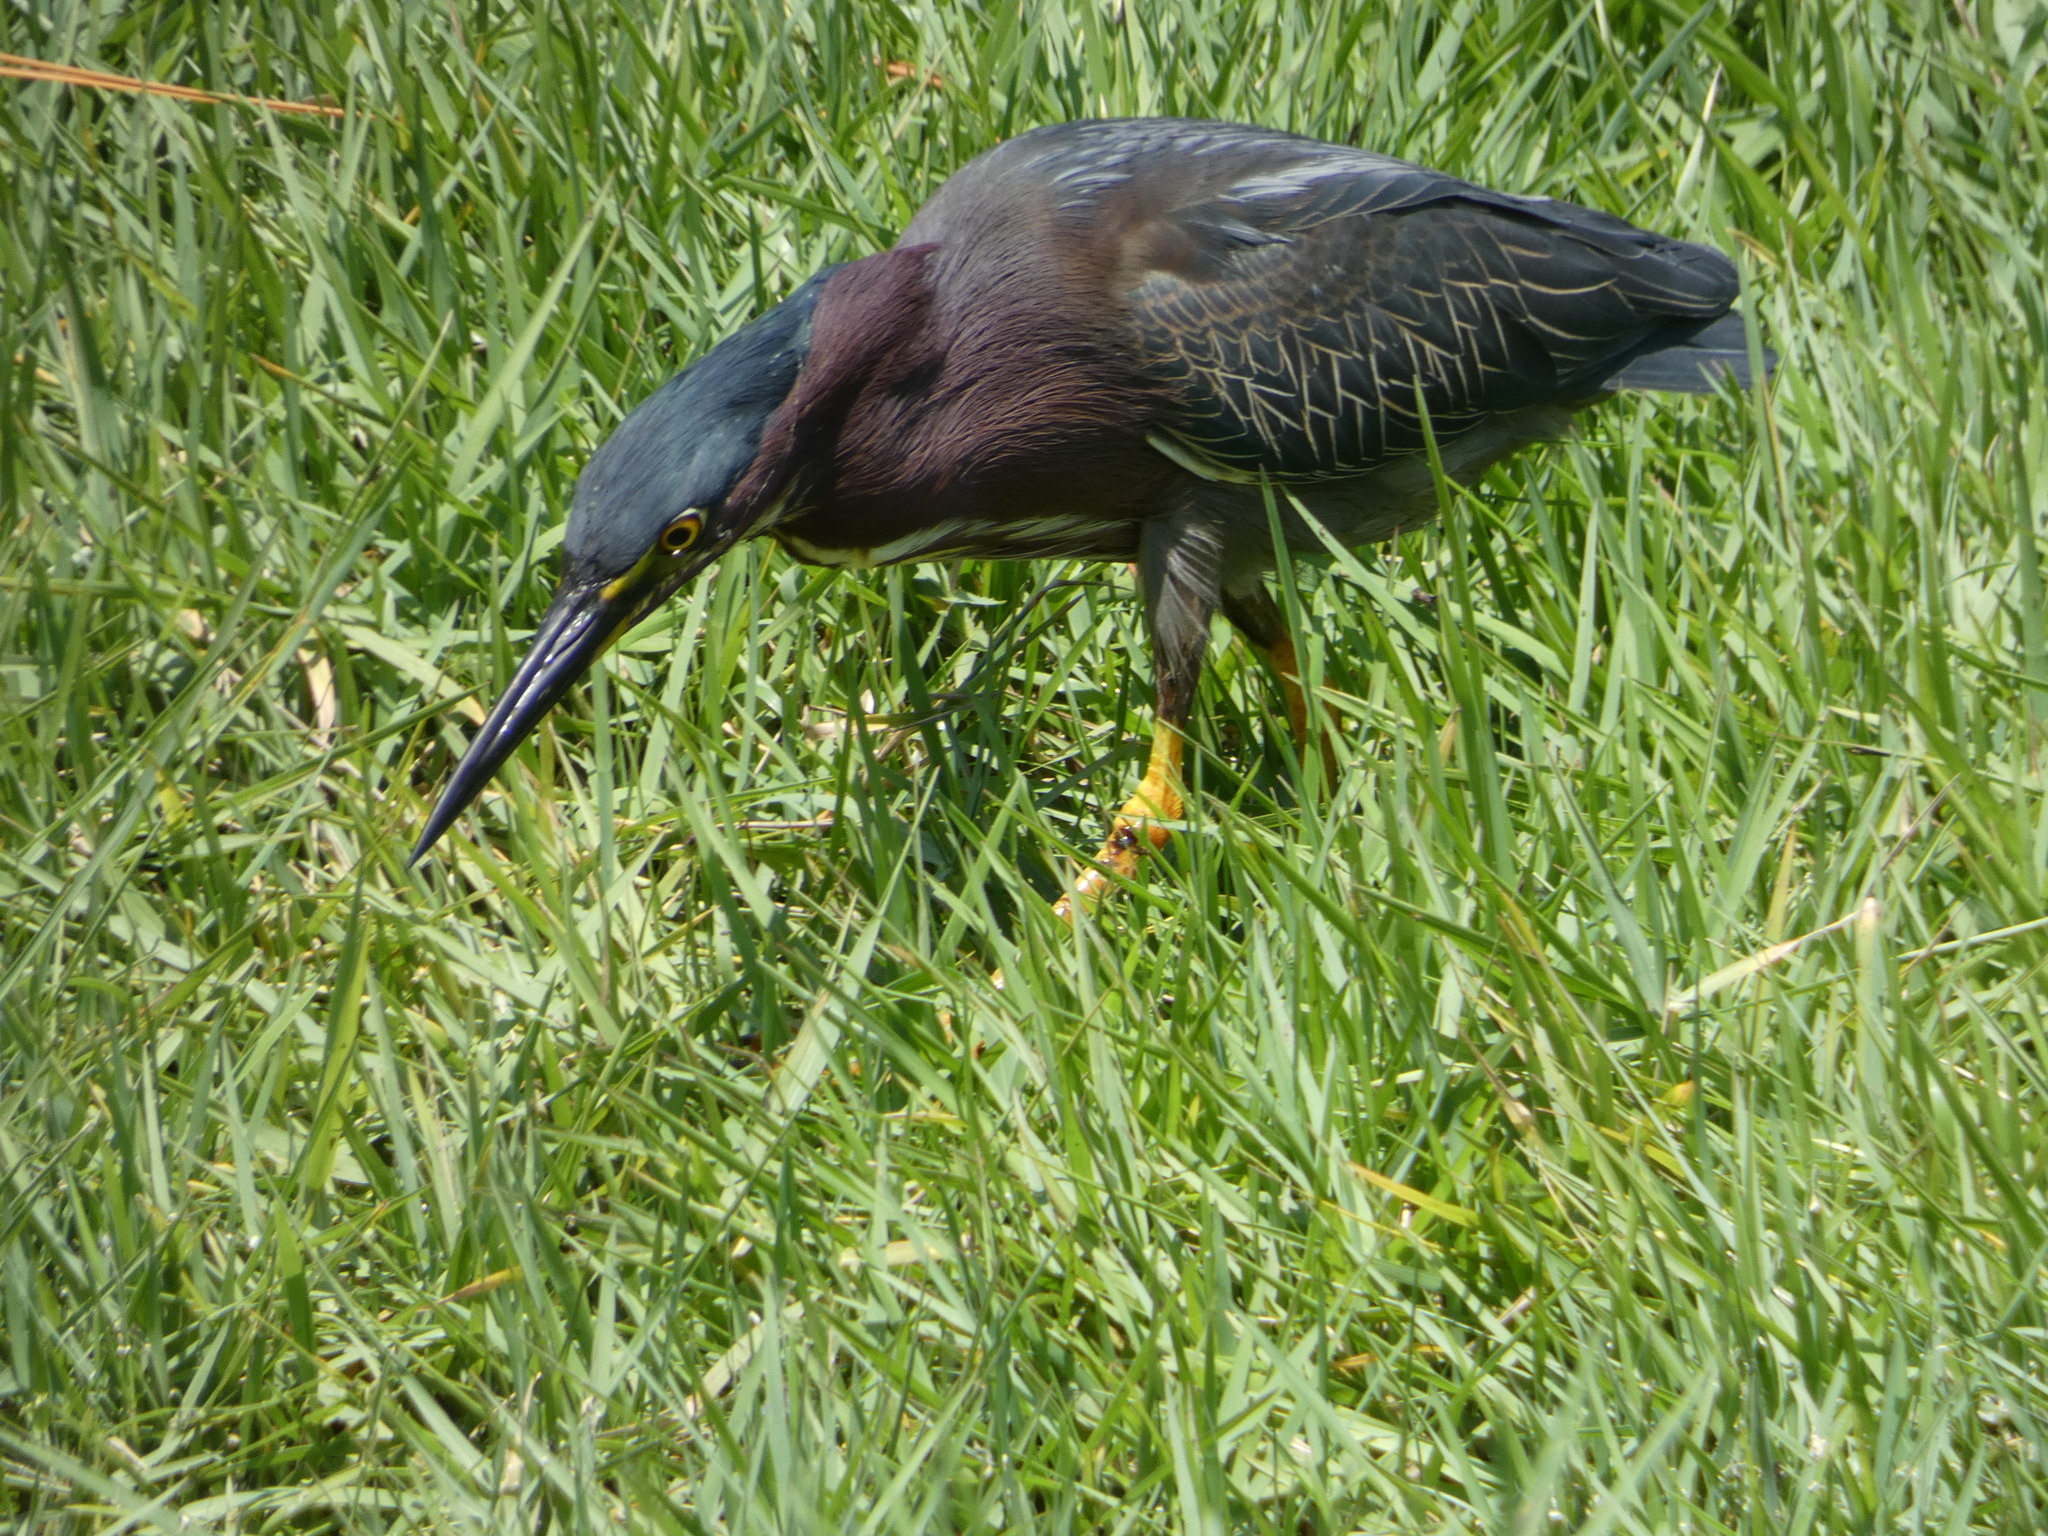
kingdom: Animalia
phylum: Chordata
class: Aves
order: Pelecaniformes
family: Ardeidae
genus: Butorides
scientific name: Butorides virescens
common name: Green heron
